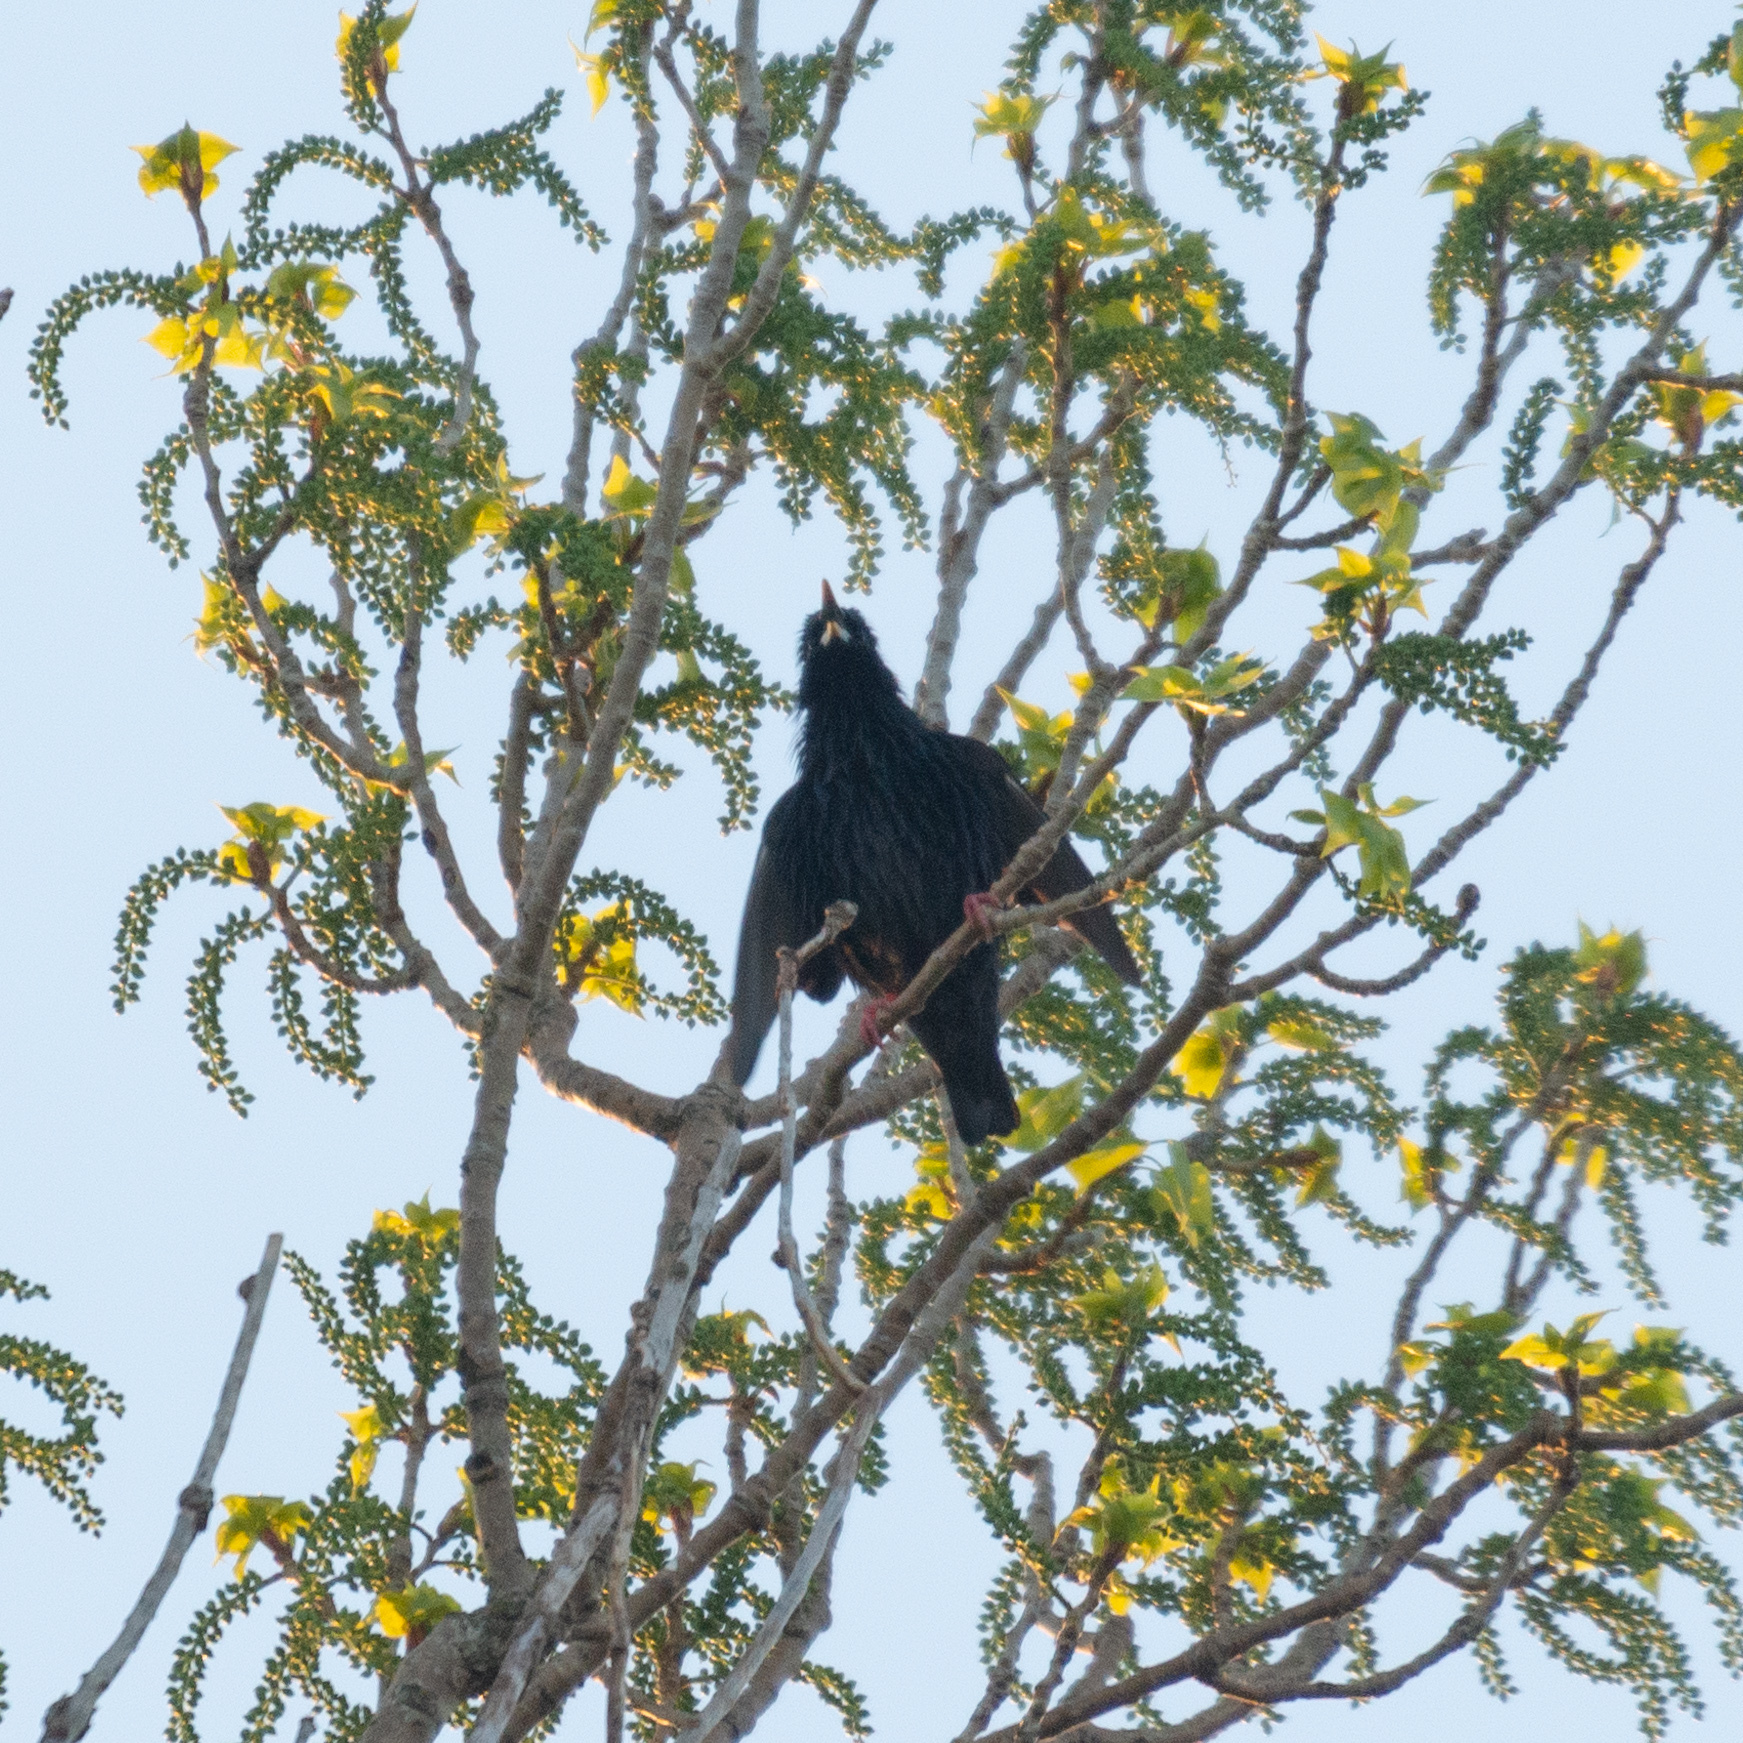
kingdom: Animalia
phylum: Chordata
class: Aves
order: Passeriformes
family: Sturnidae
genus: Sturnus
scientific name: Sturnus unicolor
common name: Spotless starling
